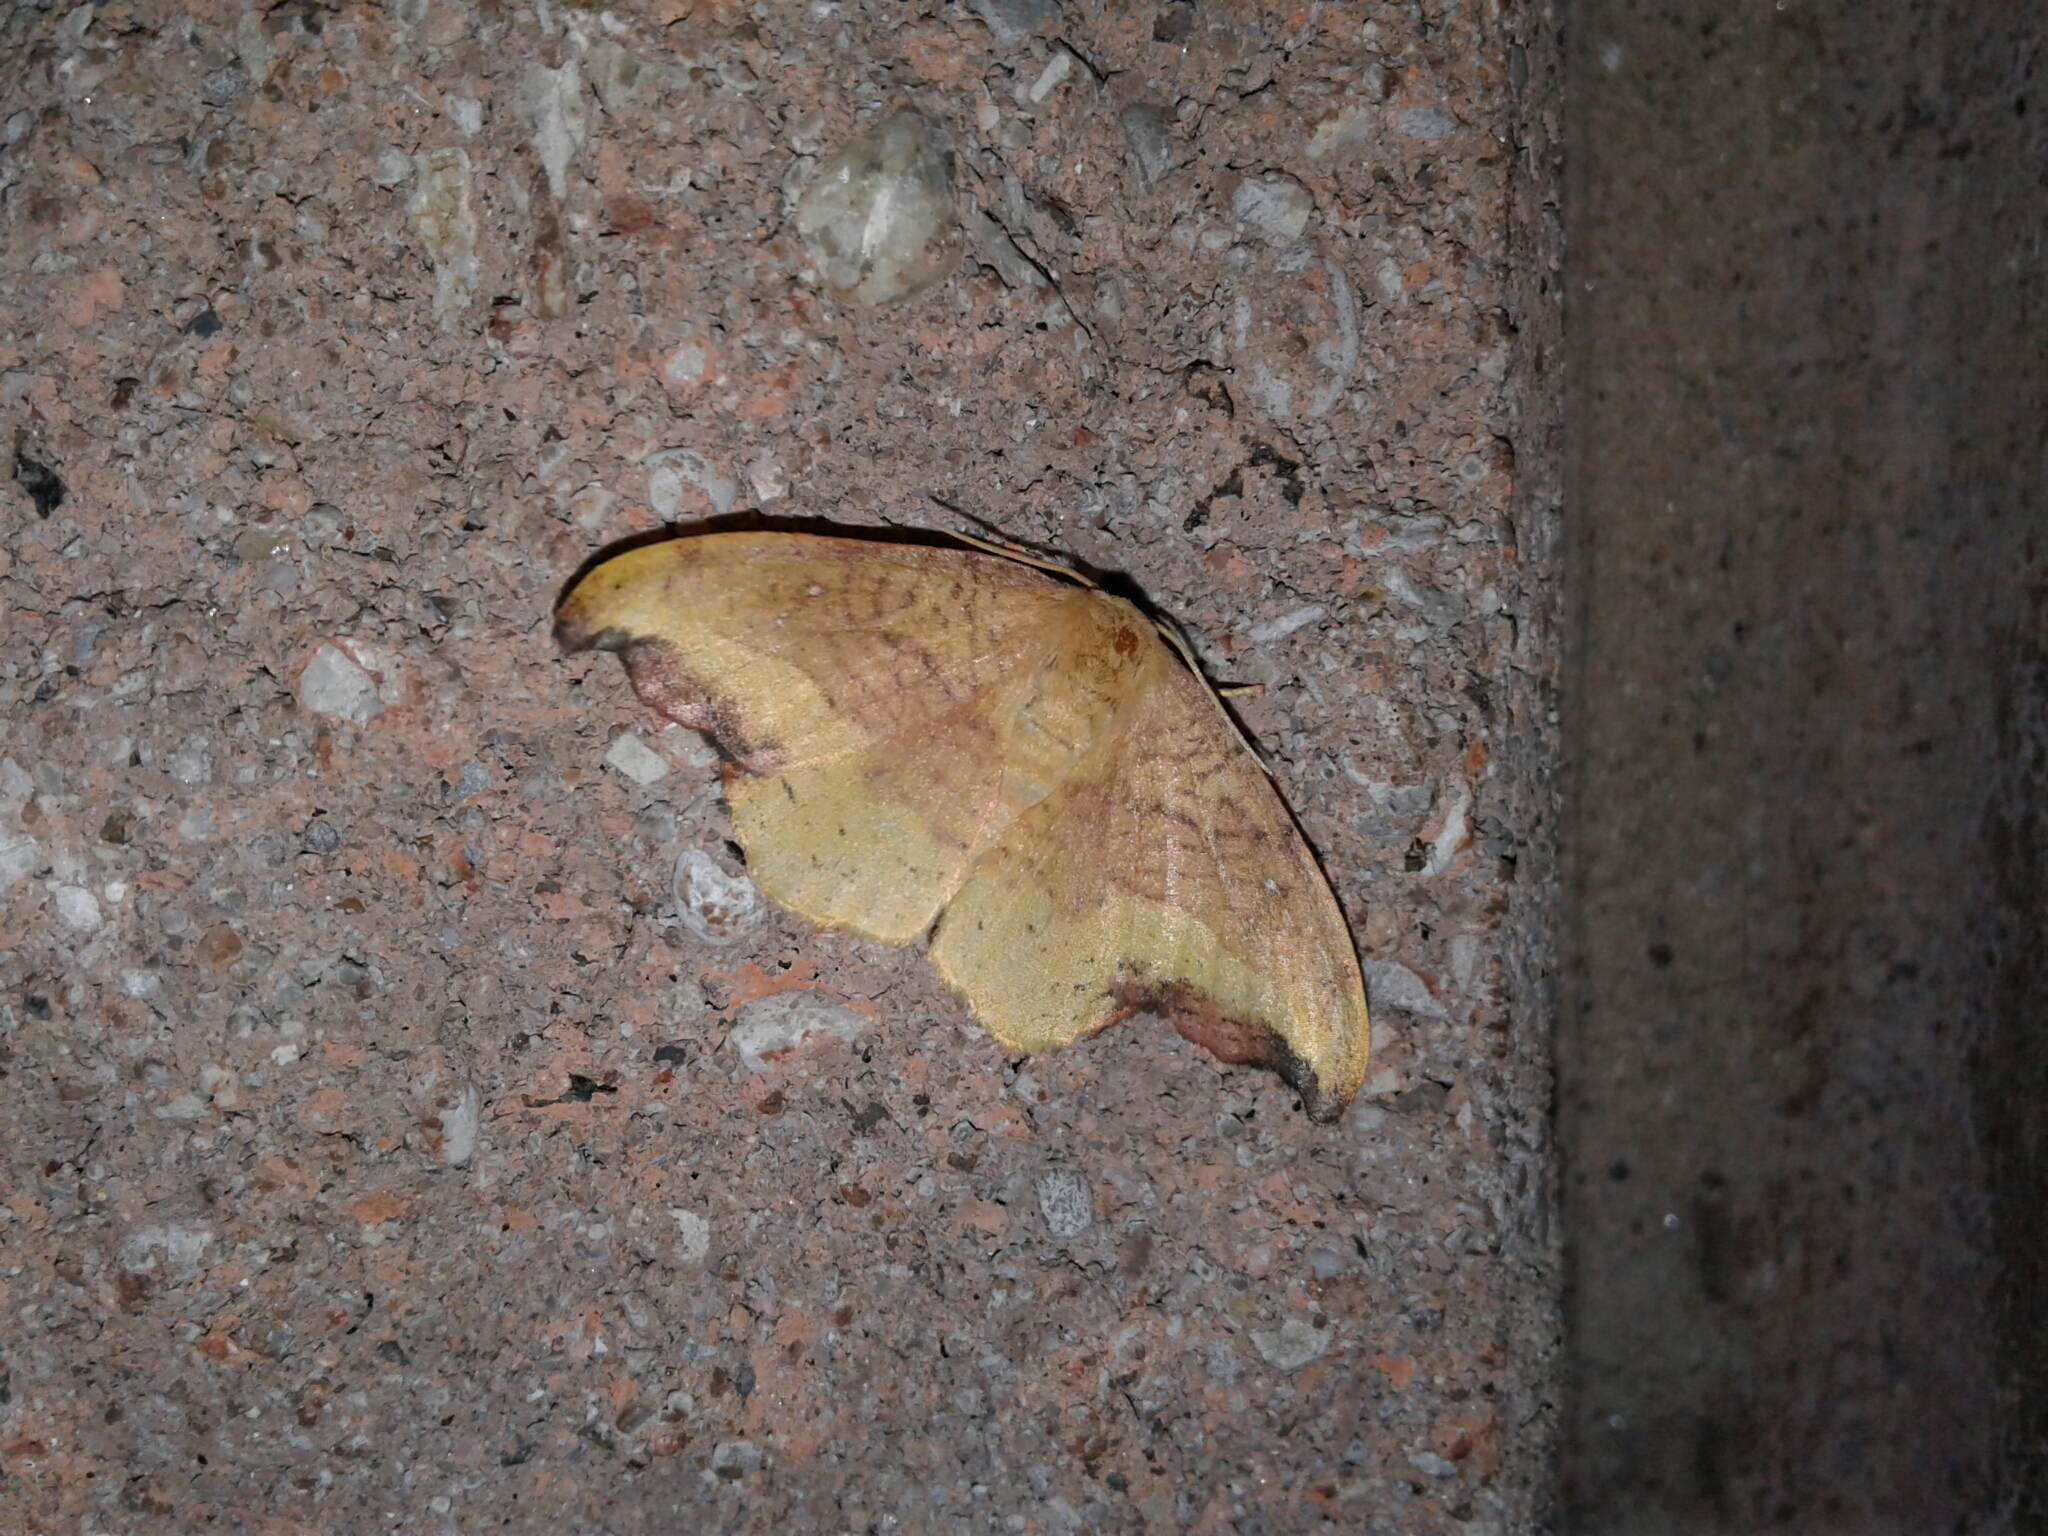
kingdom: Animalia
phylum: Arthropoda
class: Insecta
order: Lepidoptera
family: Drepanidae
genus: Oreta
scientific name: Oreta rosea
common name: Rose hooktip
